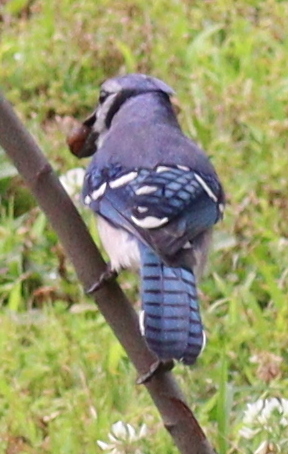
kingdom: Animalia
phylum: Chordata
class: Aves
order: Passeriformes
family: Corvidae
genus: Cyanocitta
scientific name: Cyanocitta cristata
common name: Blue jay
